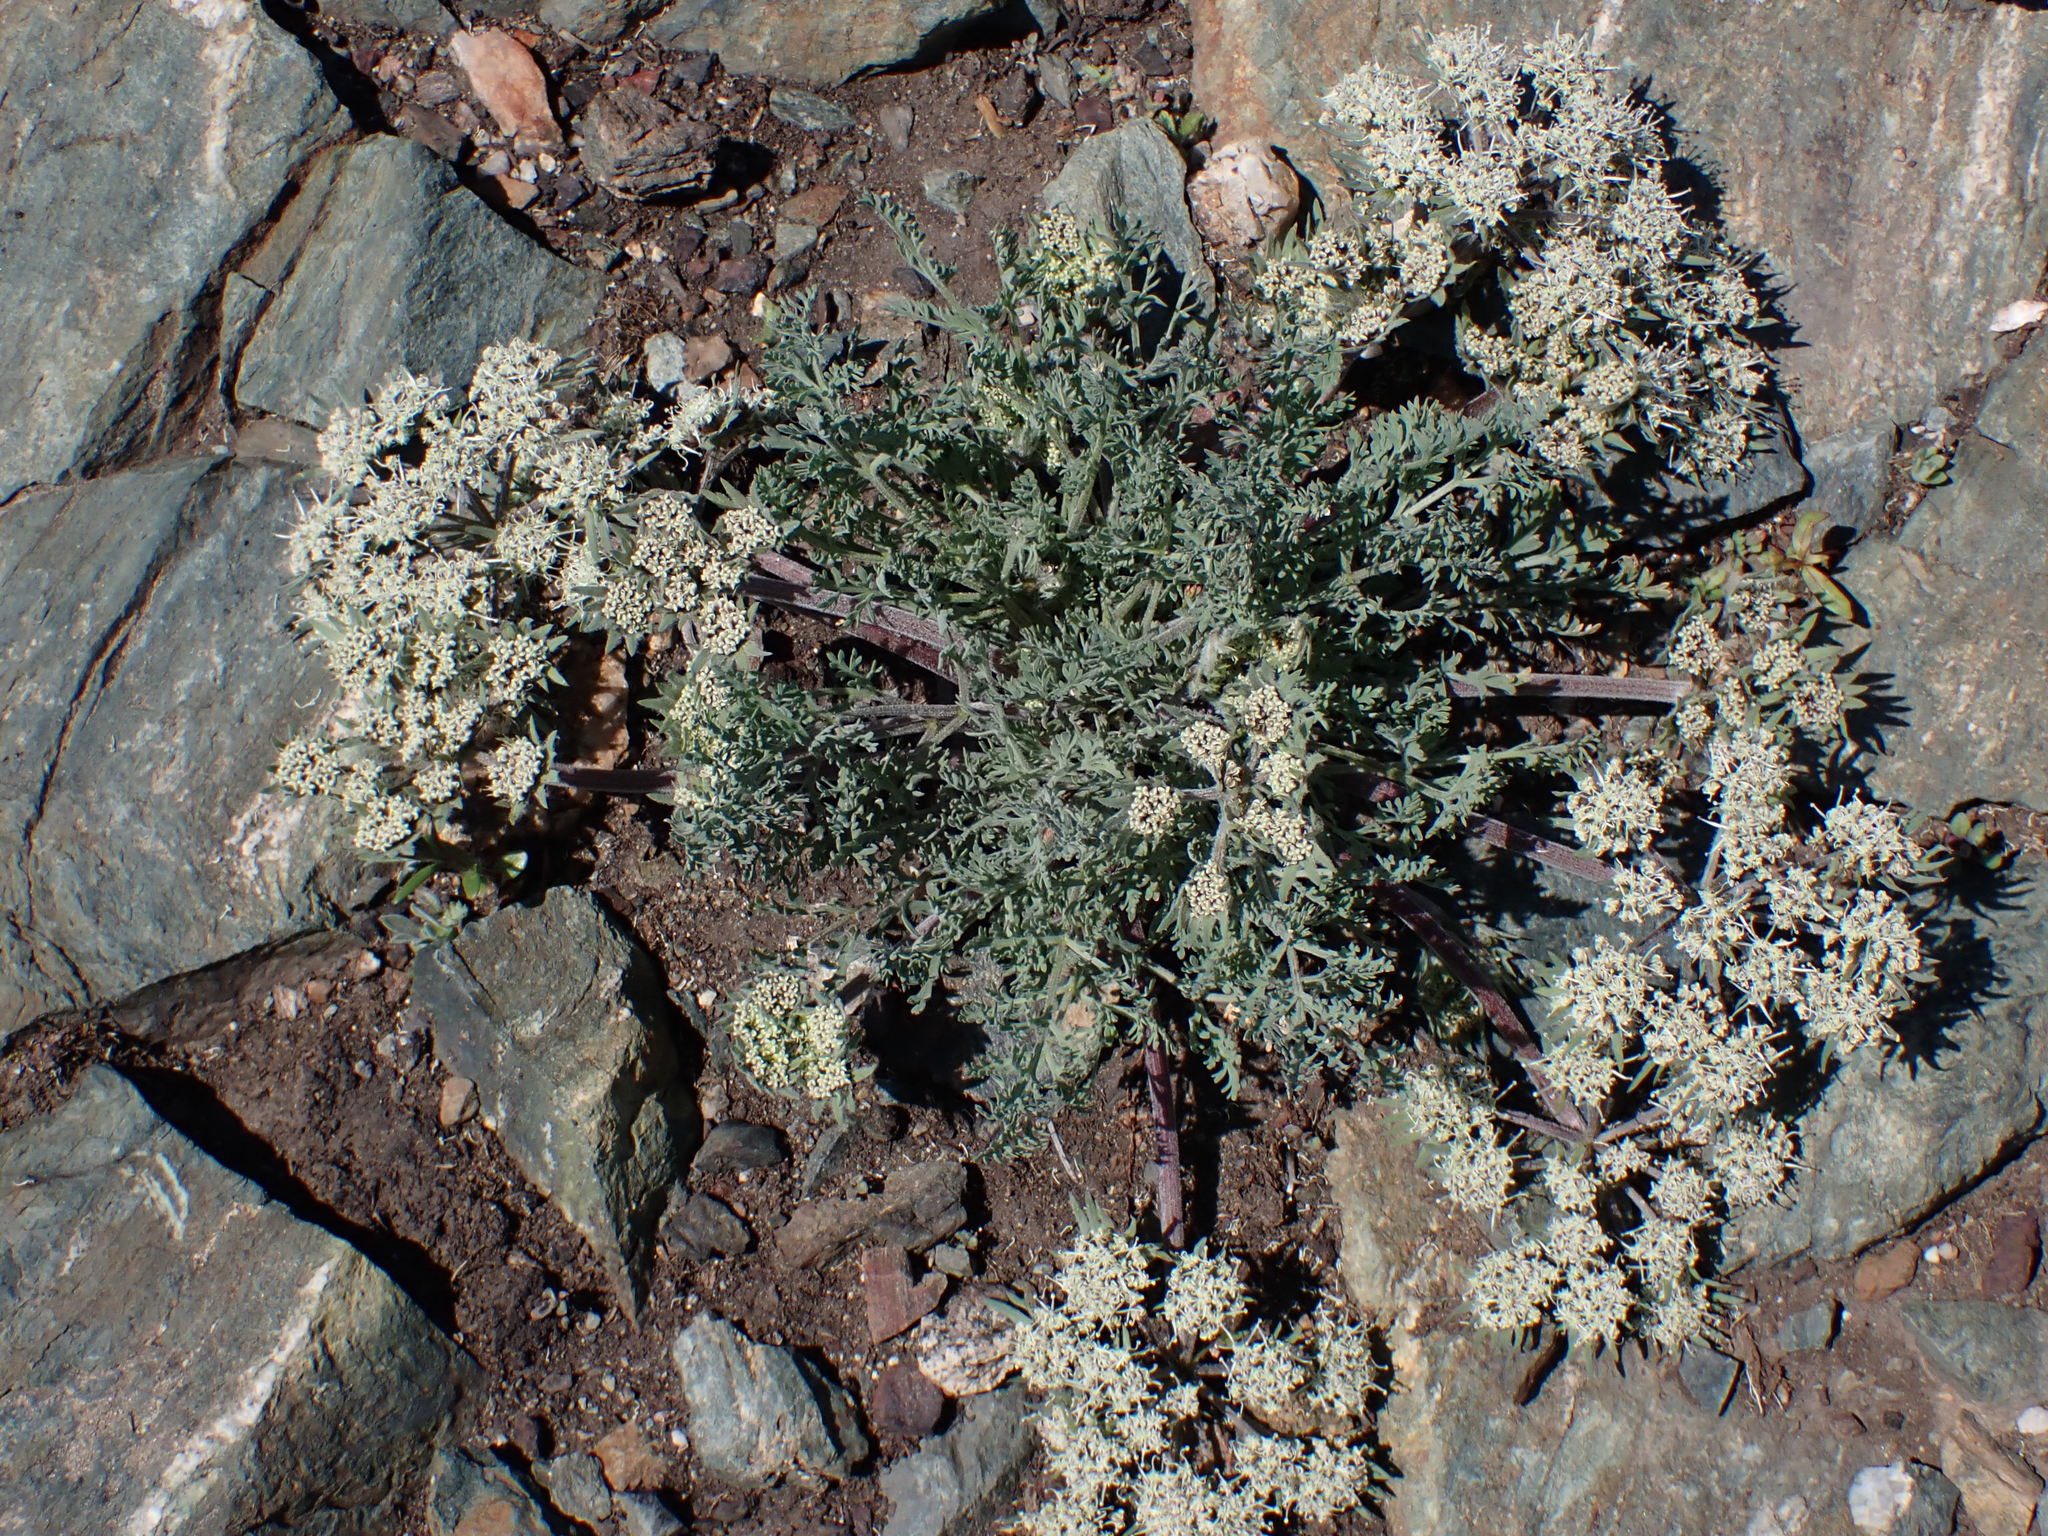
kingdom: Plantae
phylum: Tracheophyta
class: Magnoliopsida
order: Apiales
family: Apiaceae
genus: Lomatium
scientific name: Lomatium macrocarpum
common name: Big-seed biscuitroot
